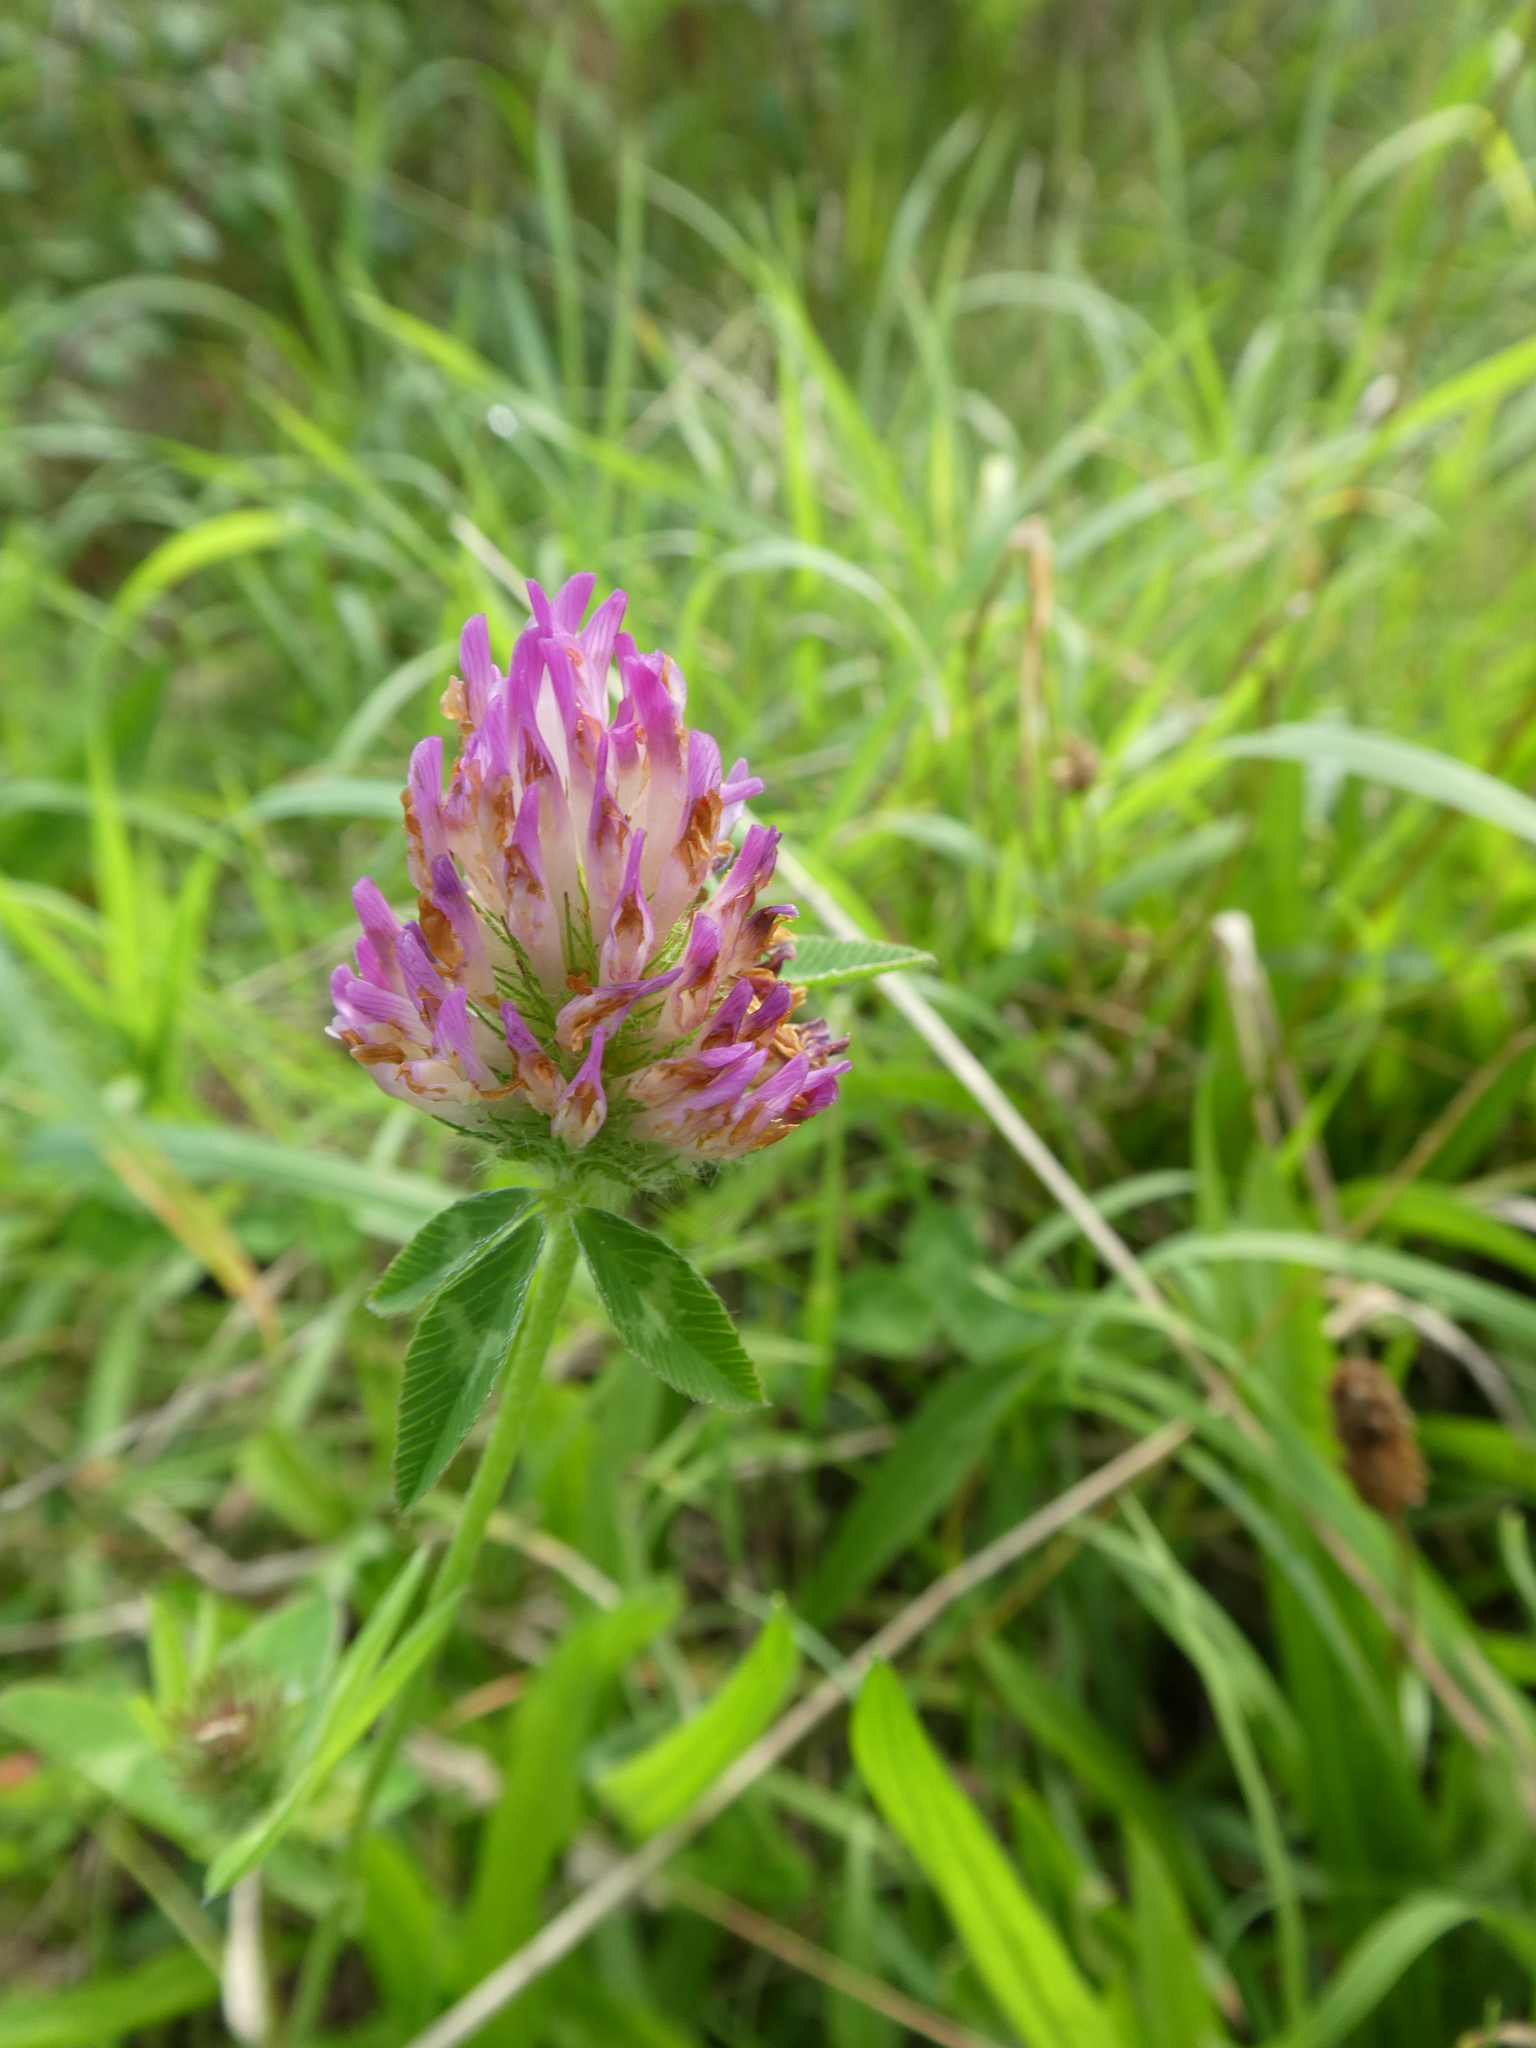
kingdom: Plantae
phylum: Tracheophyta
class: Magnoliopsida
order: Fabales
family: Fabaceae
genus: Trifolium
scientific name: Trifolium pratense
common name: Red clover
